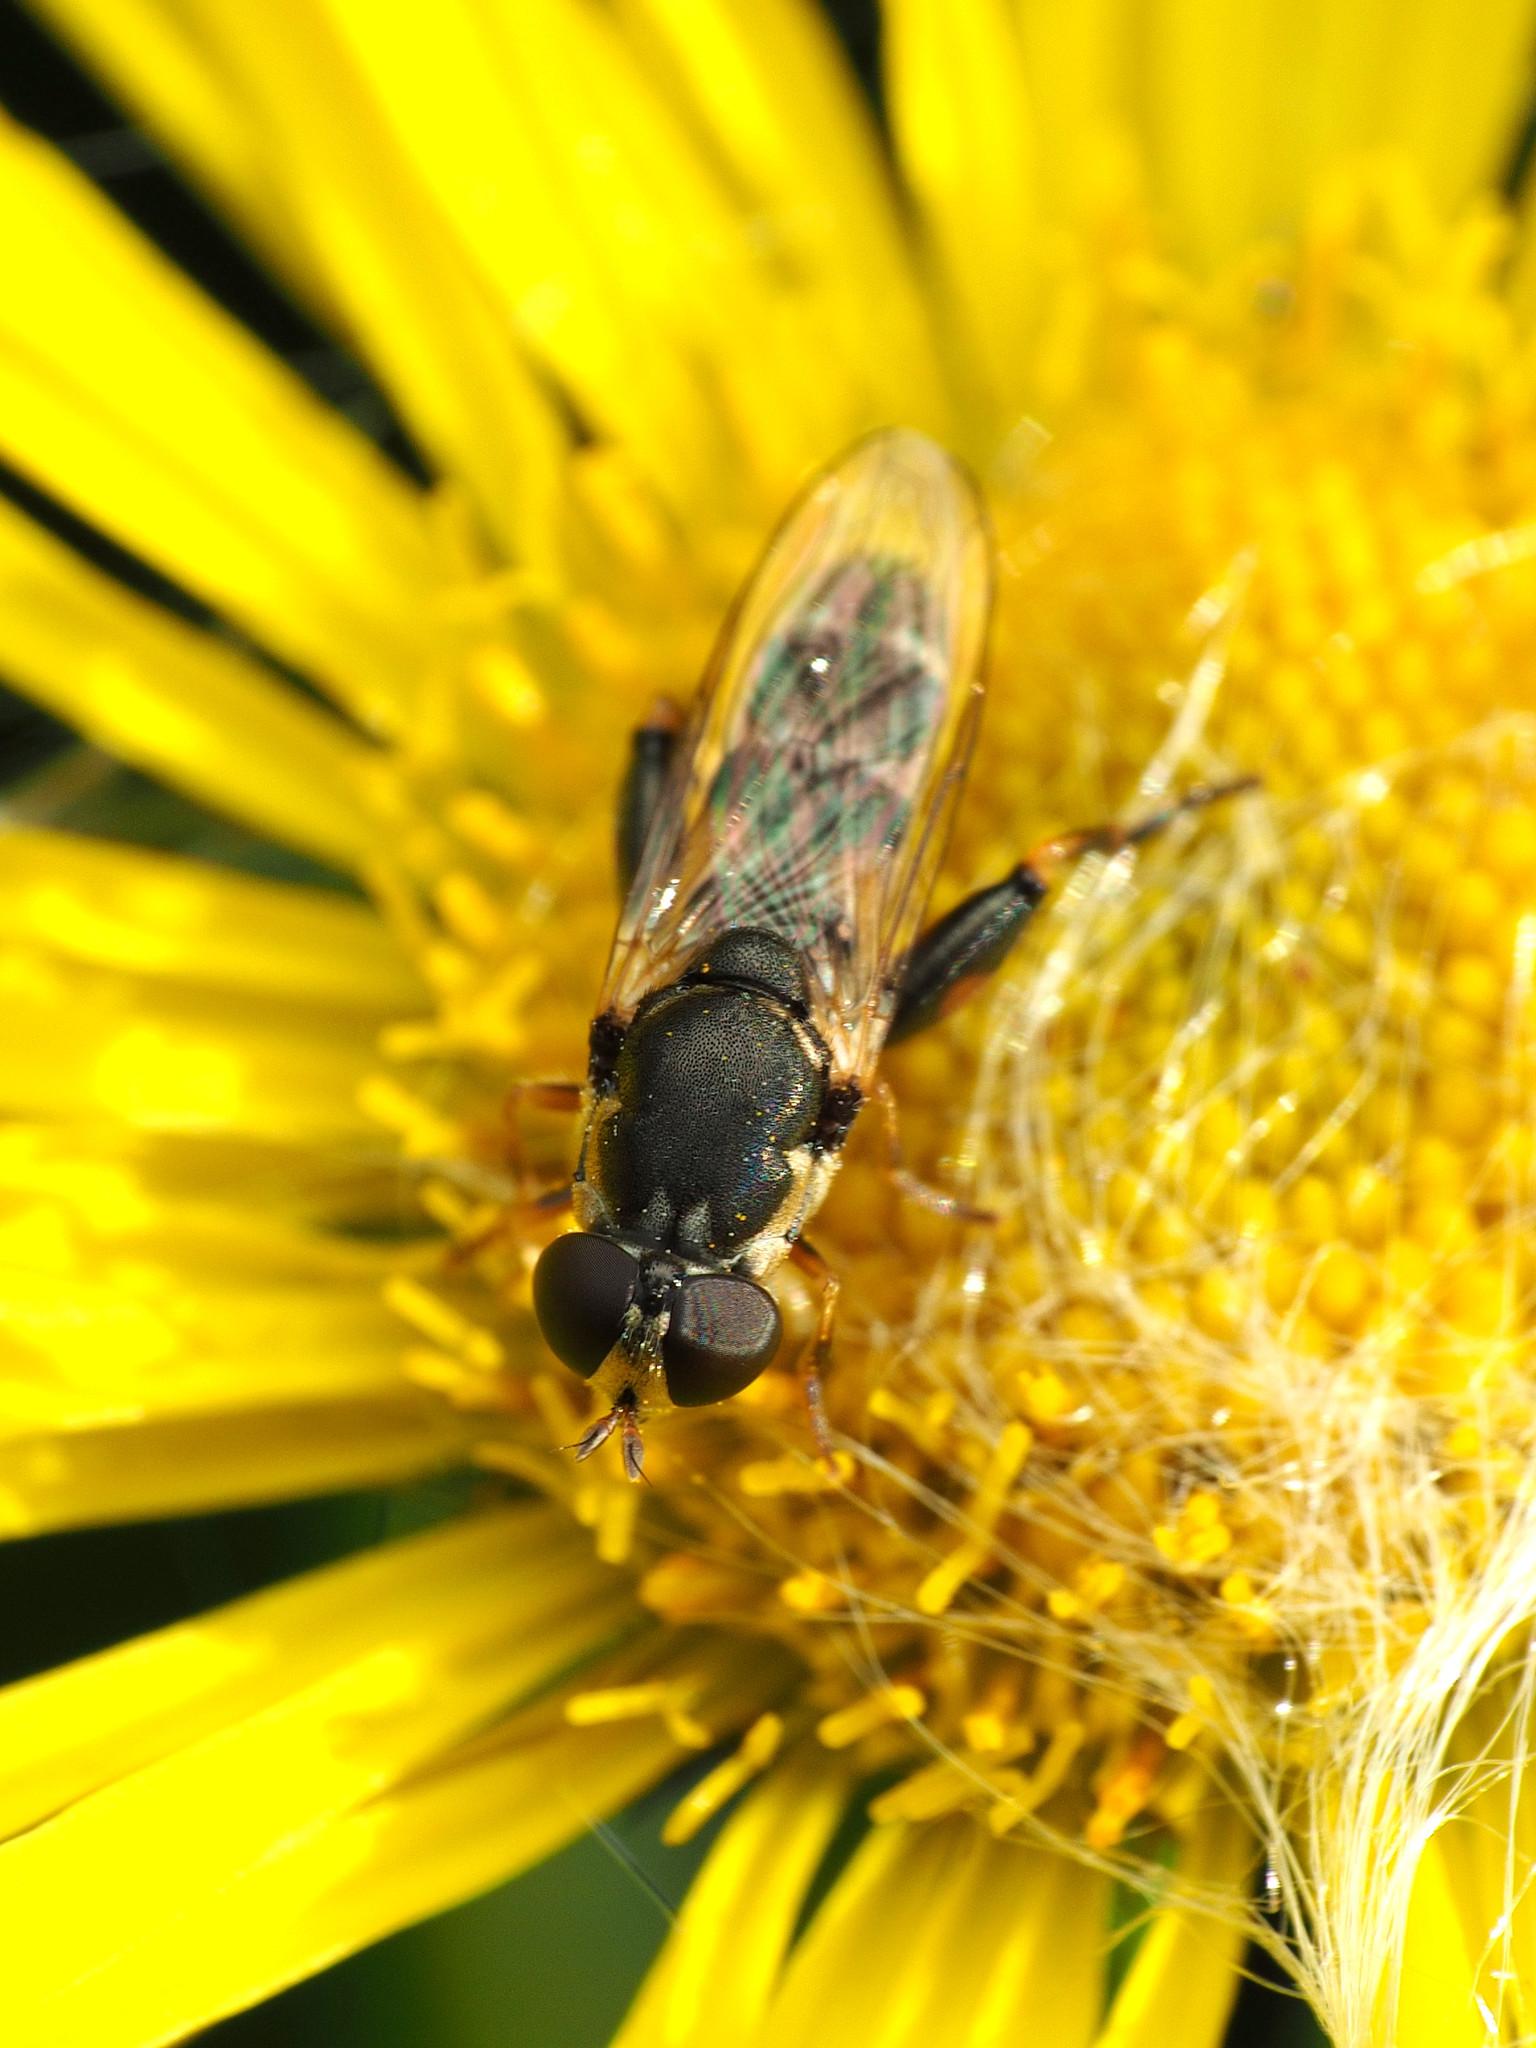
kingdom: Animalia
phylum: Arthropoda
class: Insecta
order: Diptera
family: Syrphidae
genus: Syritta
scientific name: Syritta pipiens
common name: Hover fly
